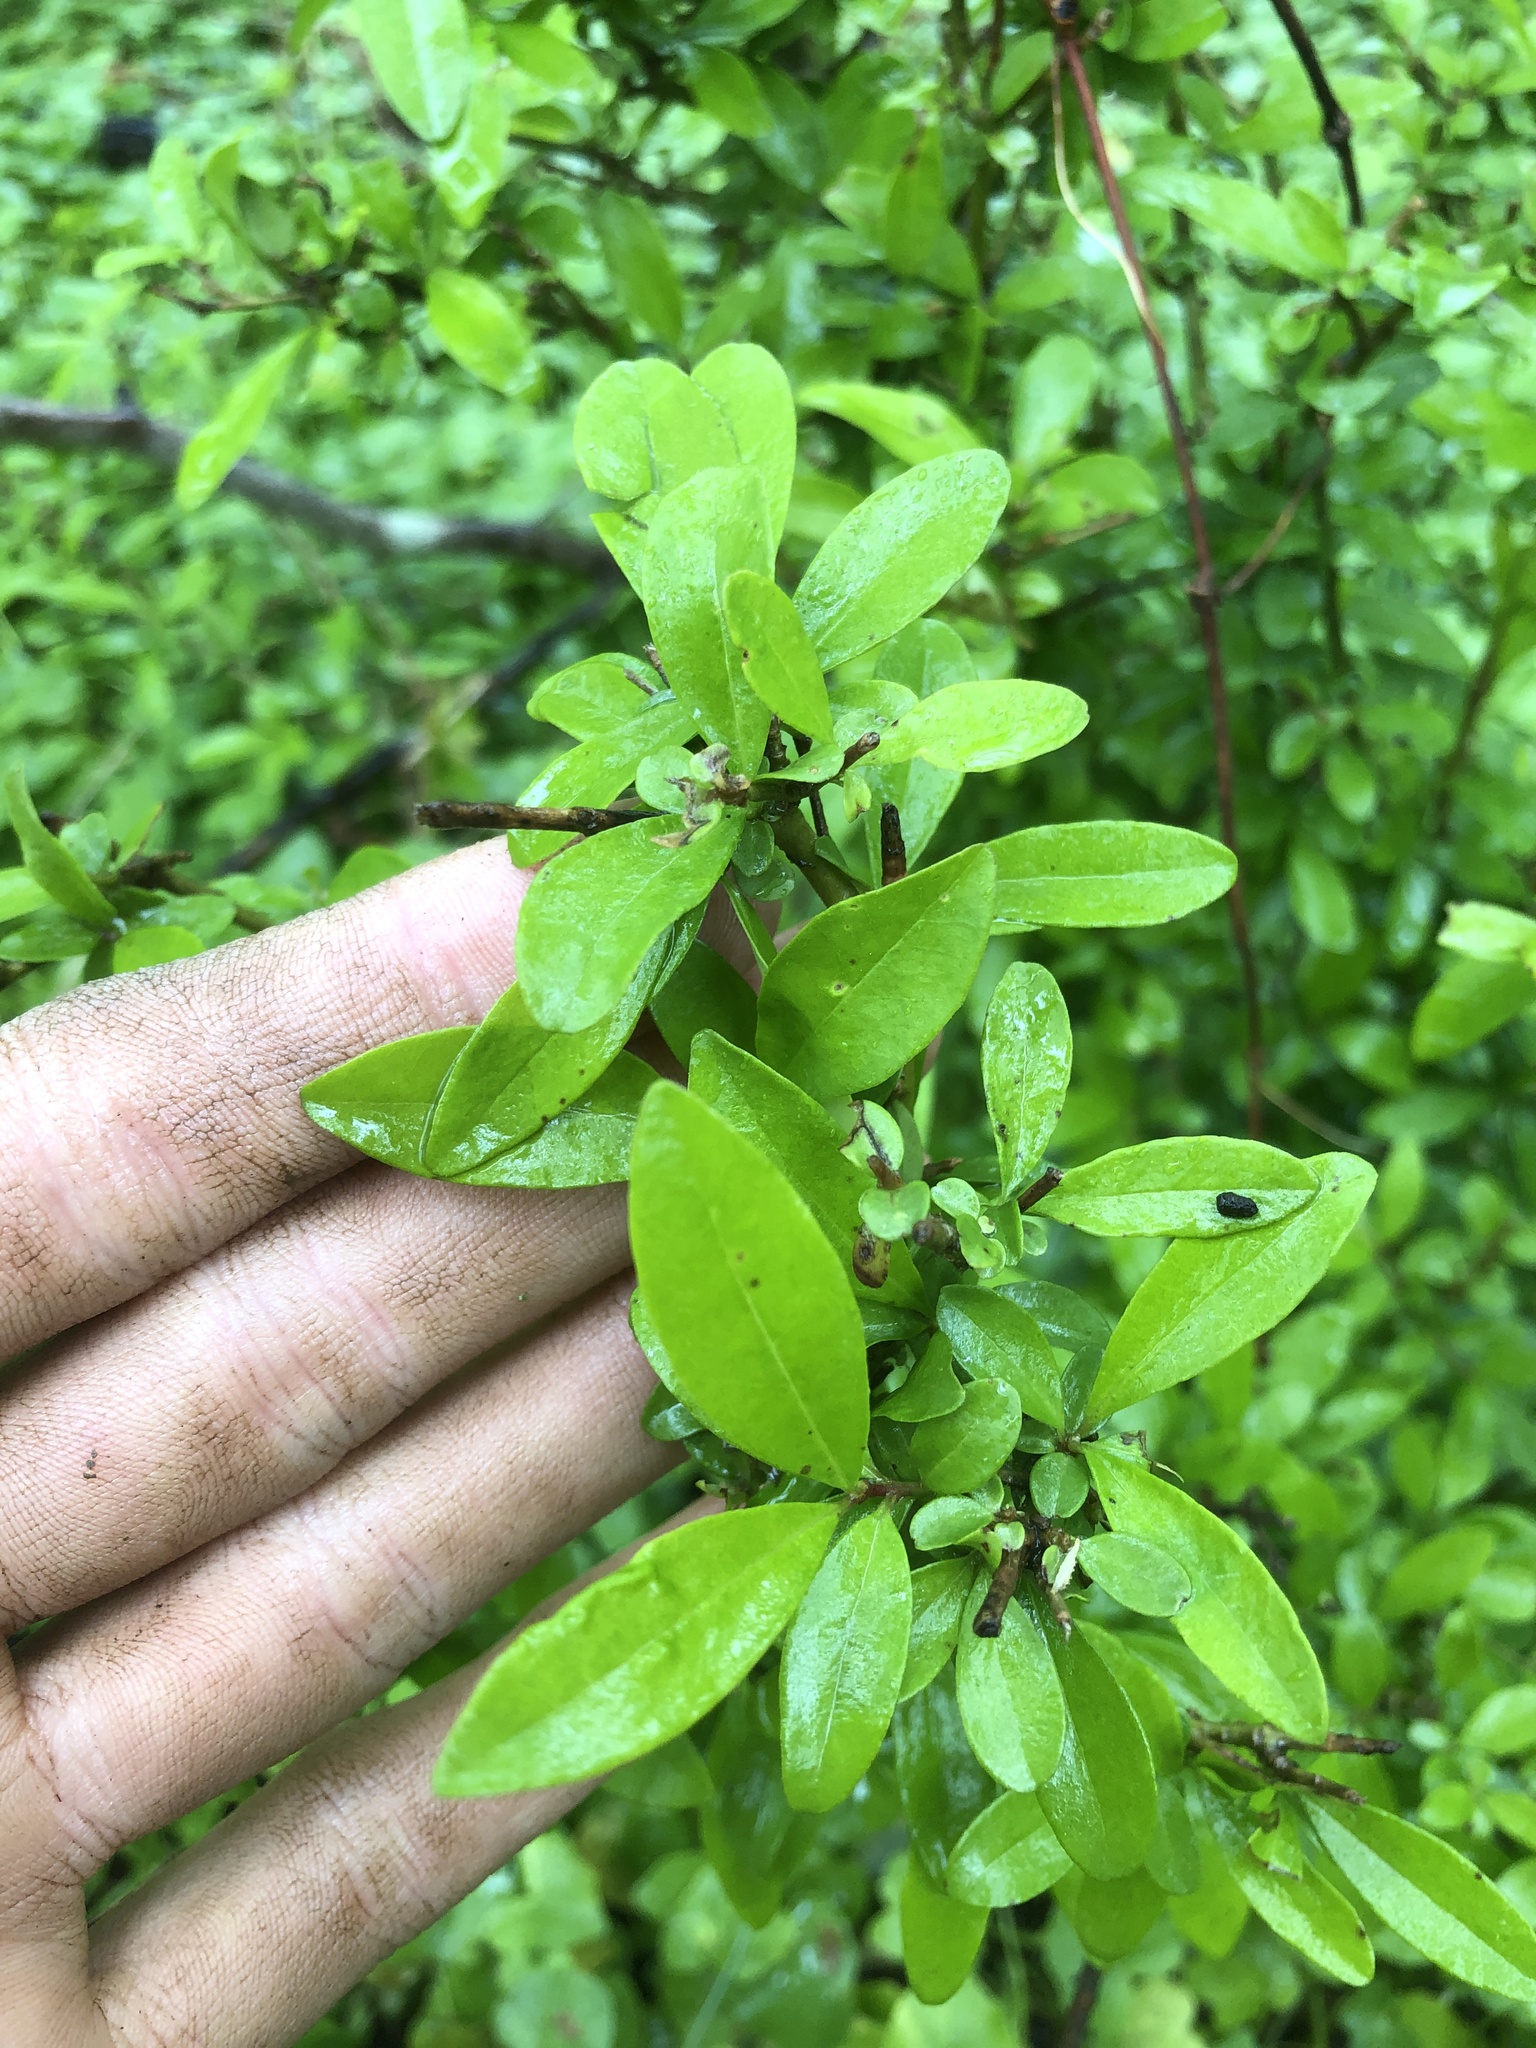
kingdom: Plantae
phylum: Tracheophyta
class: Magnoliopsida
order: Lamiales
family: Oleaceae
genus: Ligustrum
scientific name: Ligustrum obtusifolium
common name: Border privet
